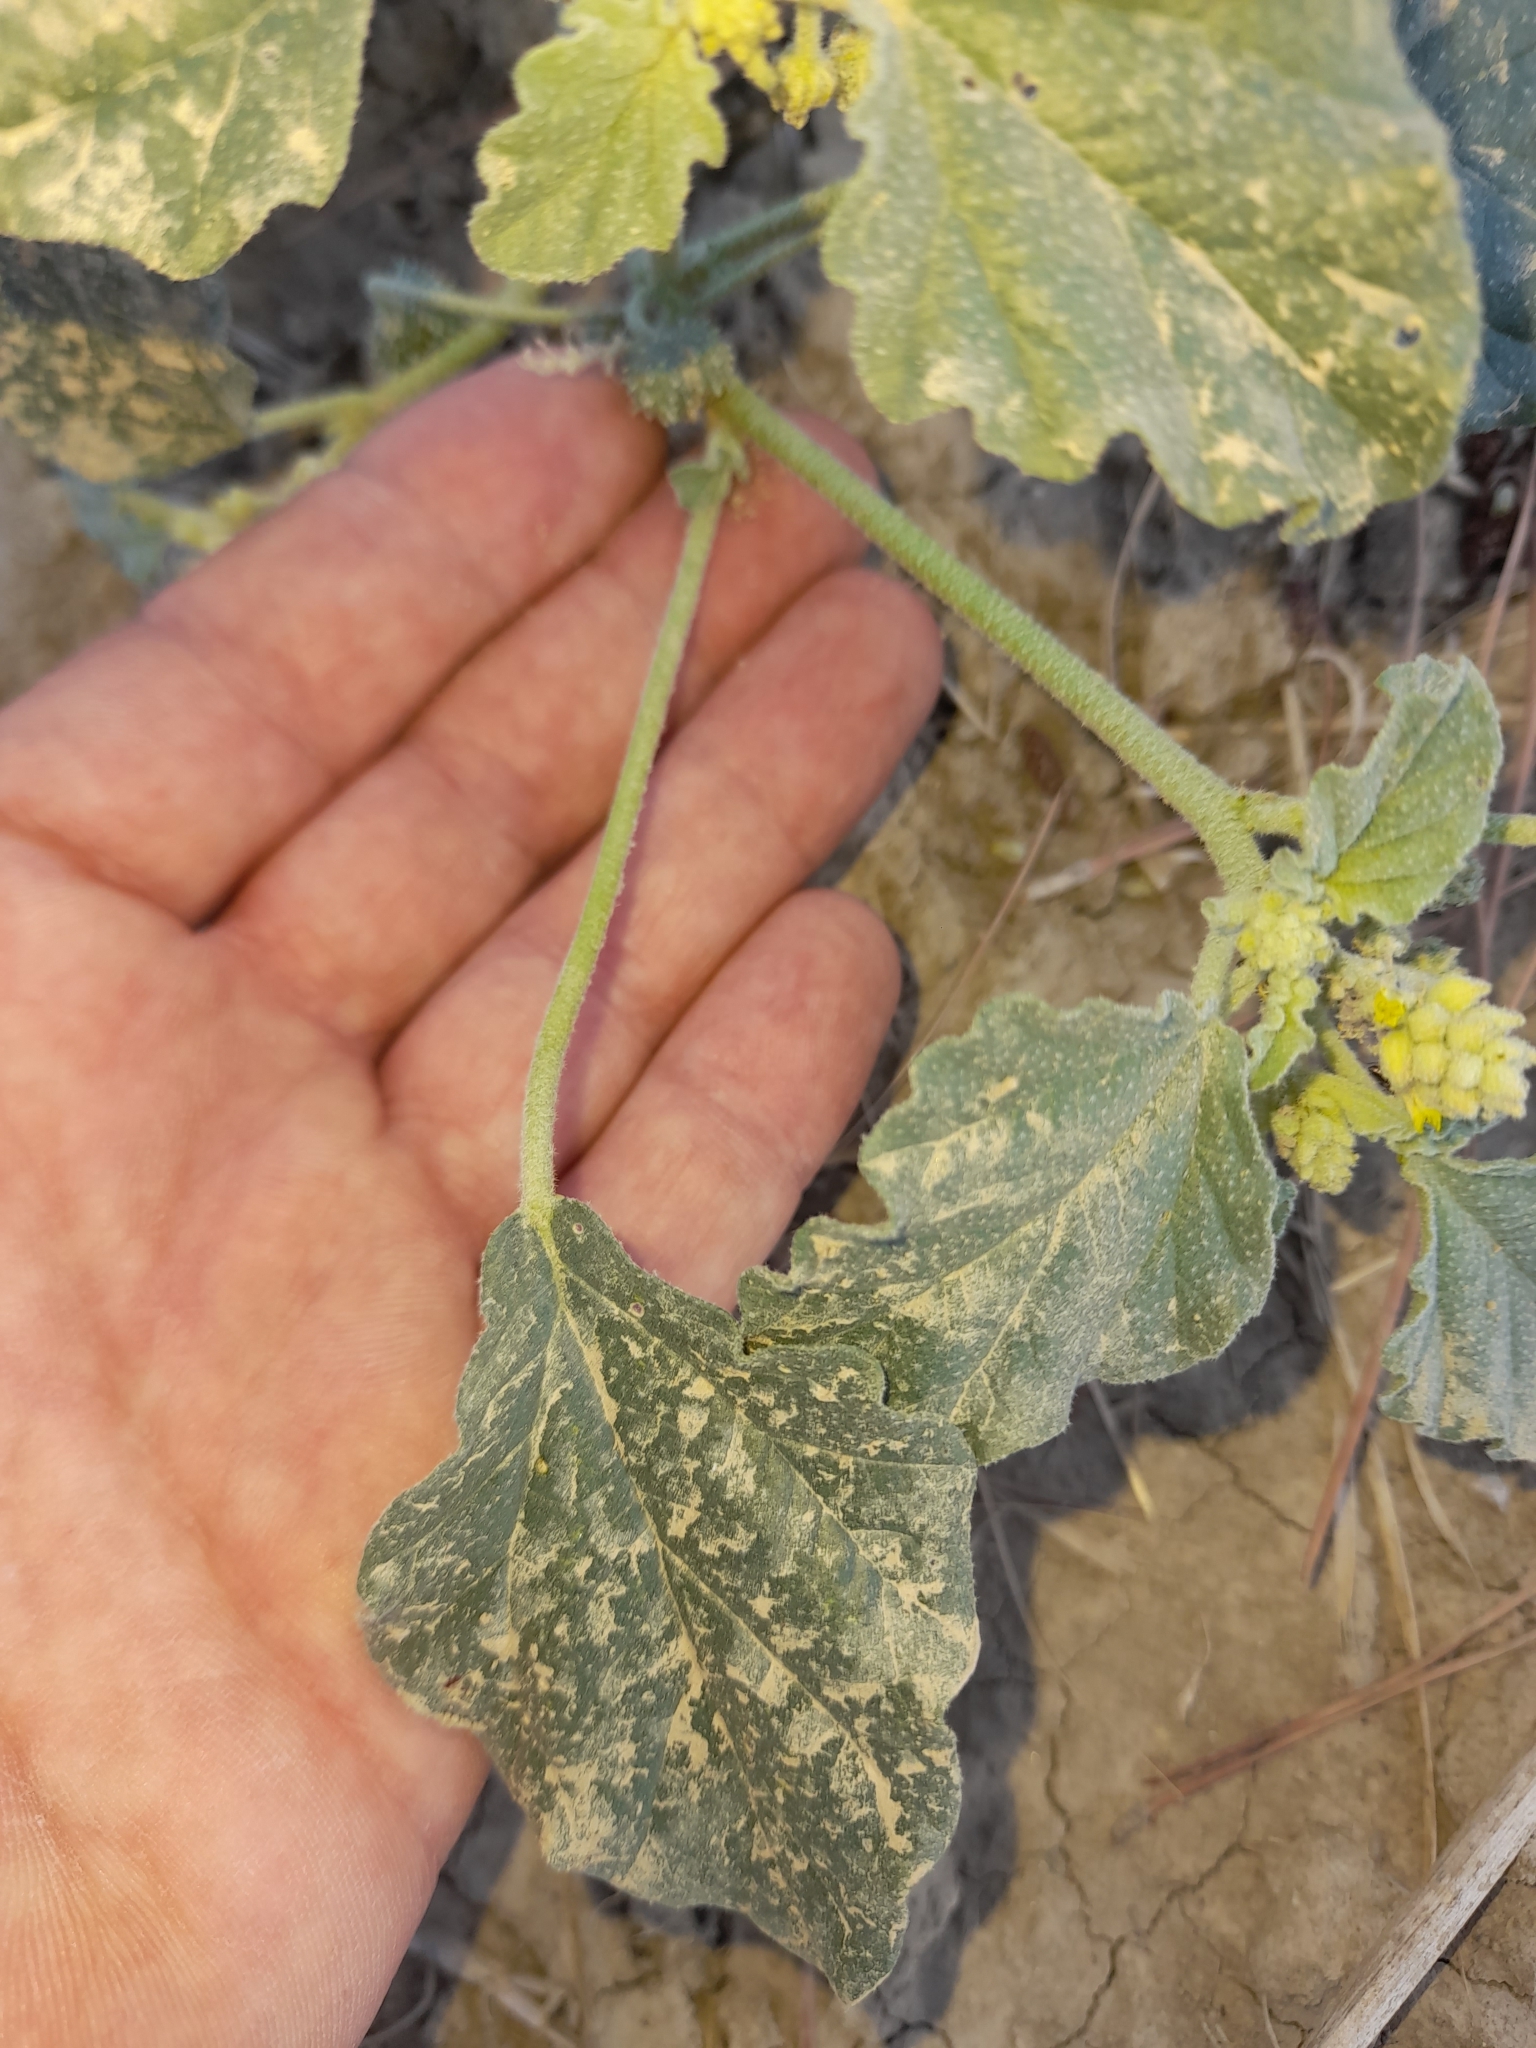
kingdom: Plantae
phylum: Tracheophyta
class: Magnoliopsida
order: Malpighiales
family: Euphorbiaceae
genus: Chrozophora
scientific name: Chrozophora tinctoria
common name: Dyer's litmus
